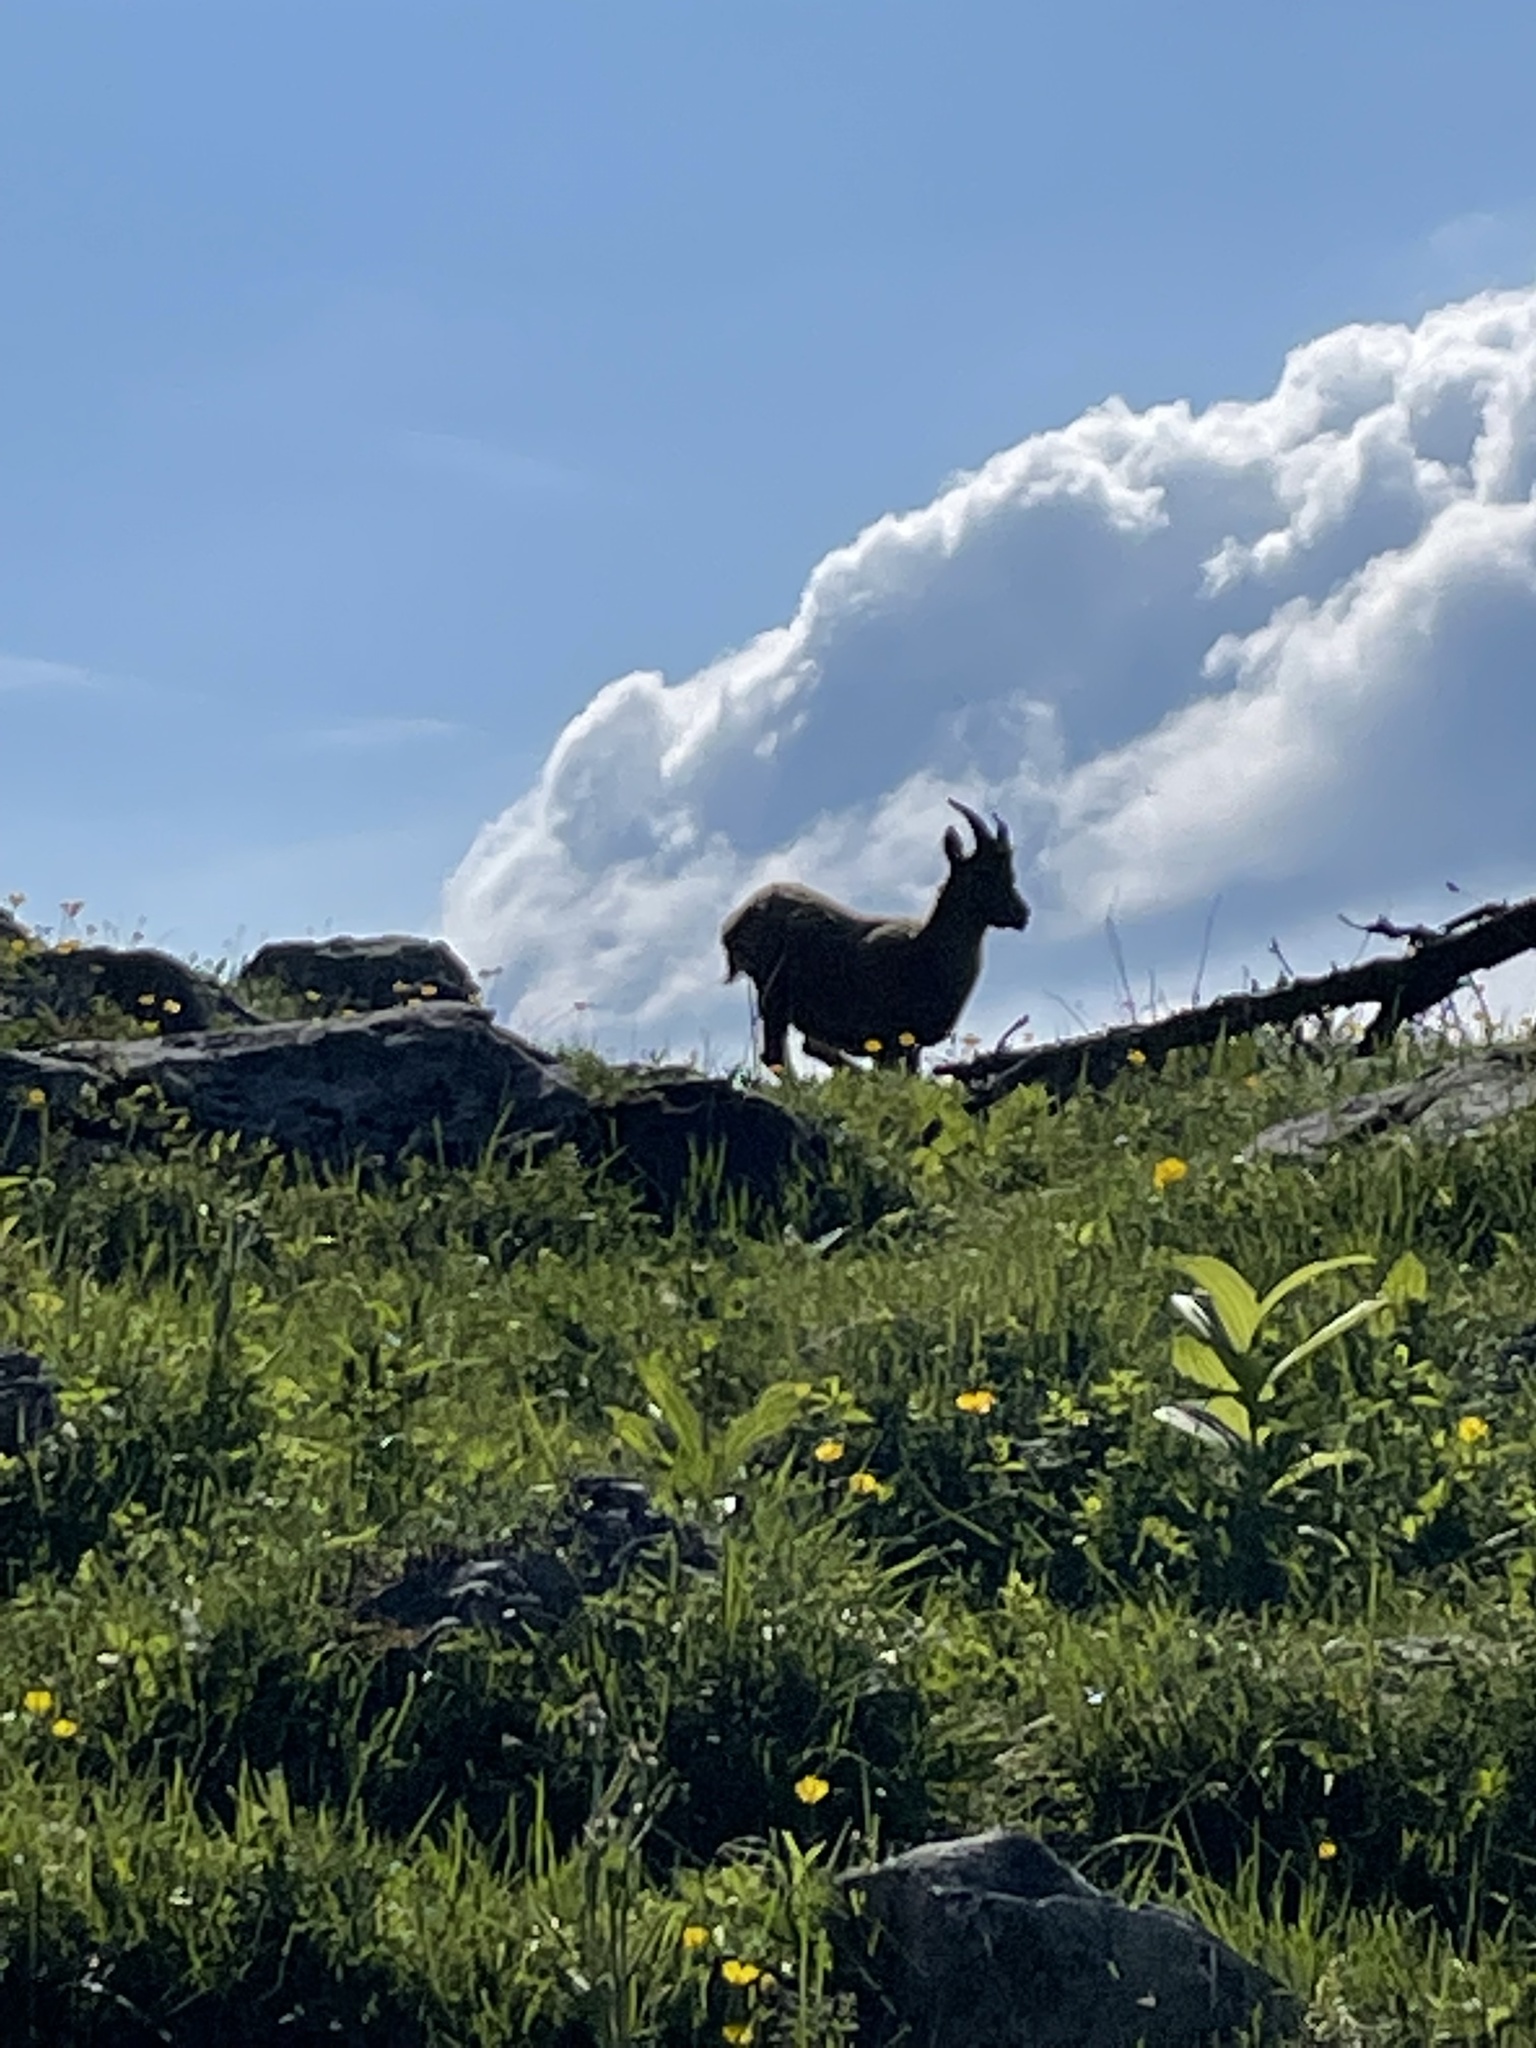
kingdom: Animalia
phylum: Chordata
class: Mammalia
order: Artiodactyla
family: Bovidae
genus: Capra
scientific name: Capra ibex
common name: Alpine ibex
